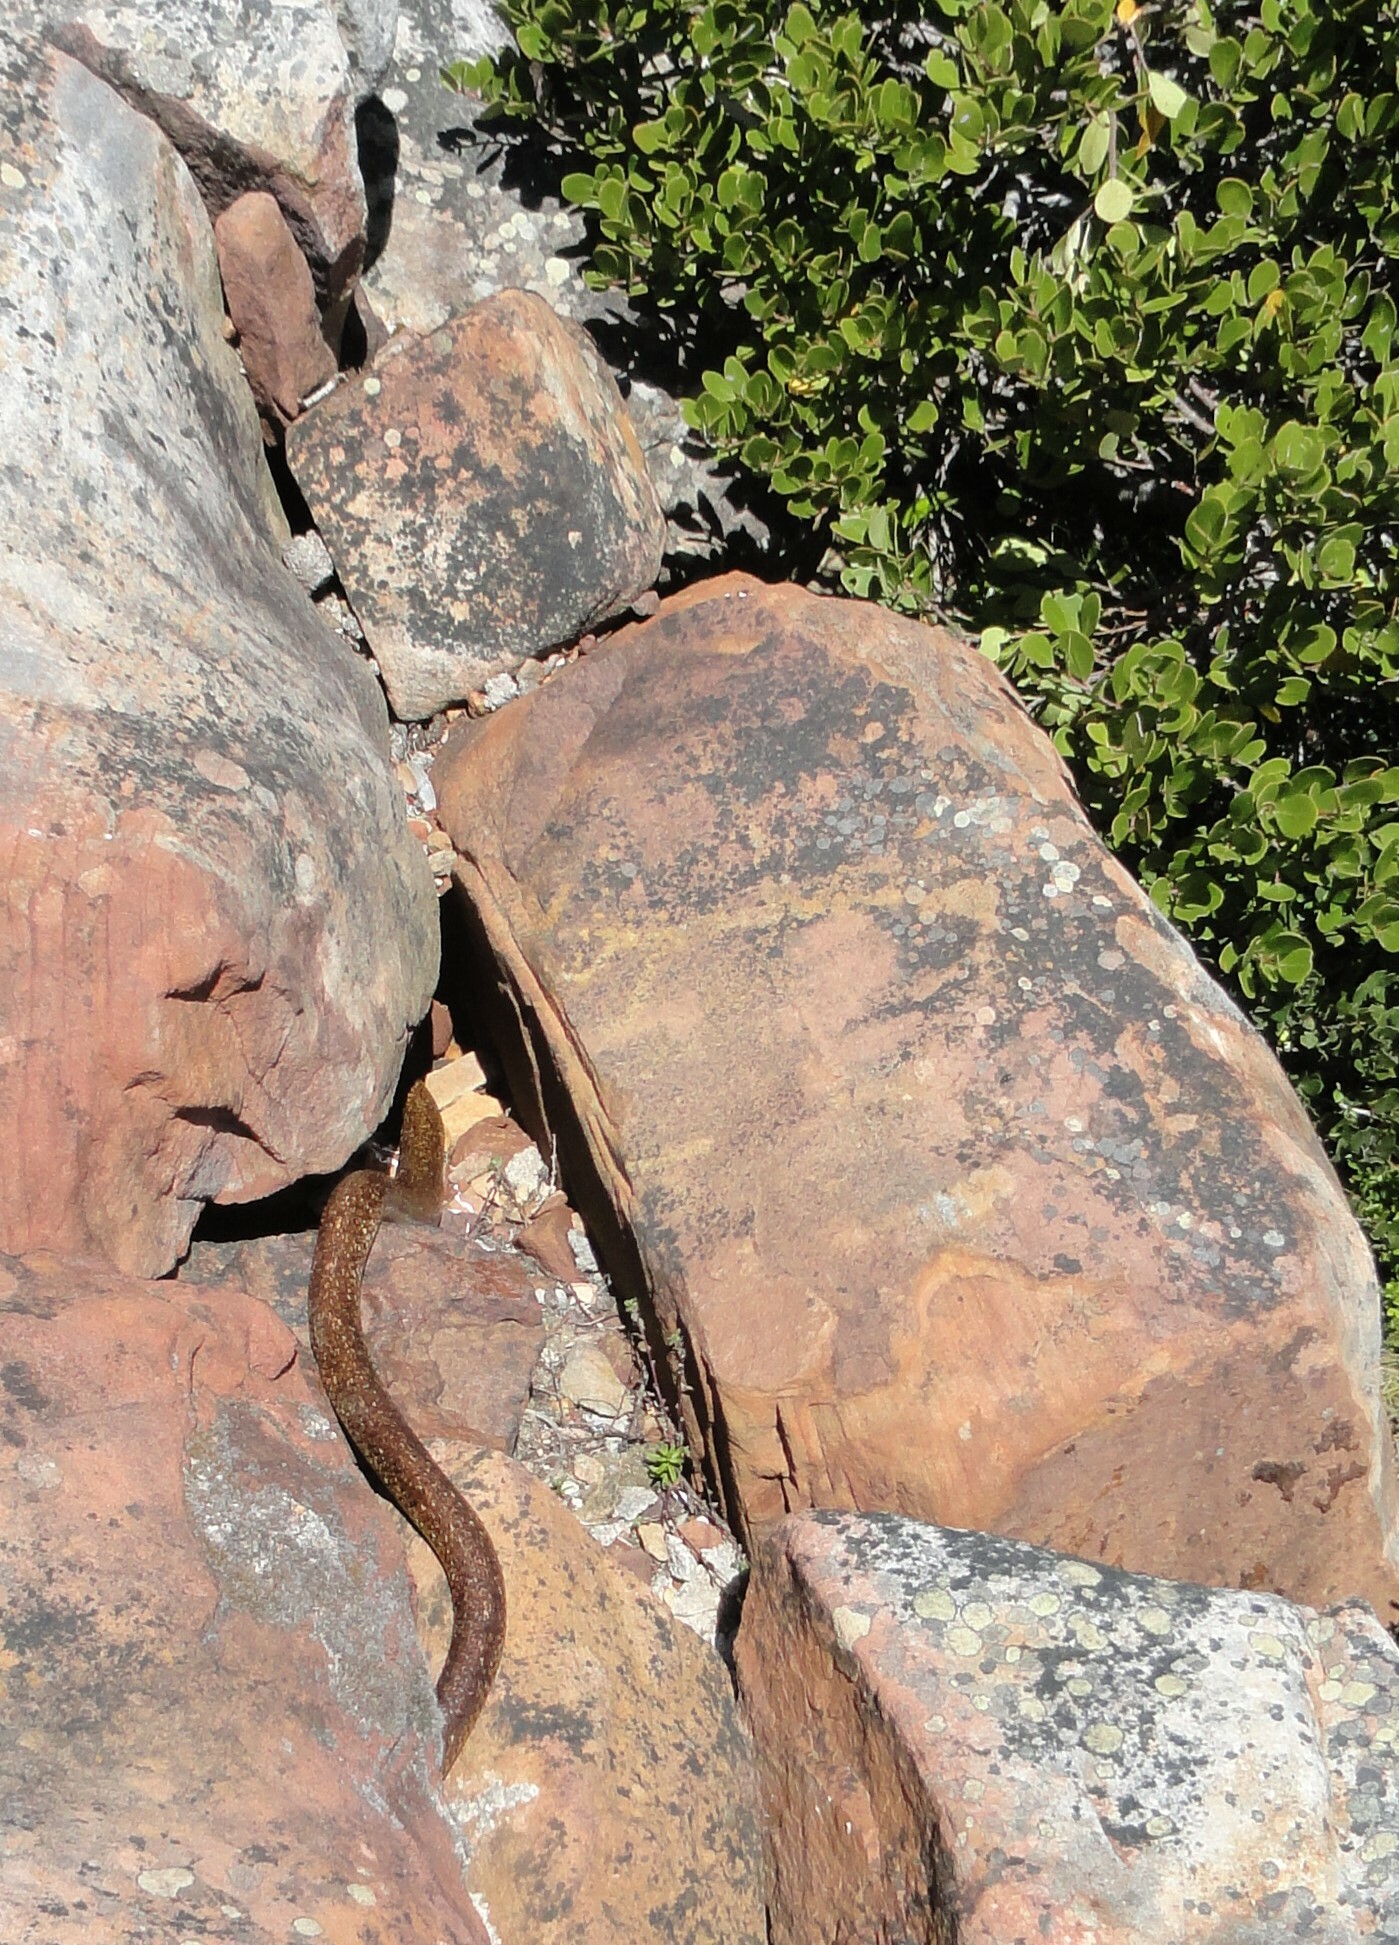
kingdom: Animalia
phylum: Chordata
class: Squamata
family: Elapidae
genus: Naja
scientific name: Naja nivea
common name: Cape cobra
